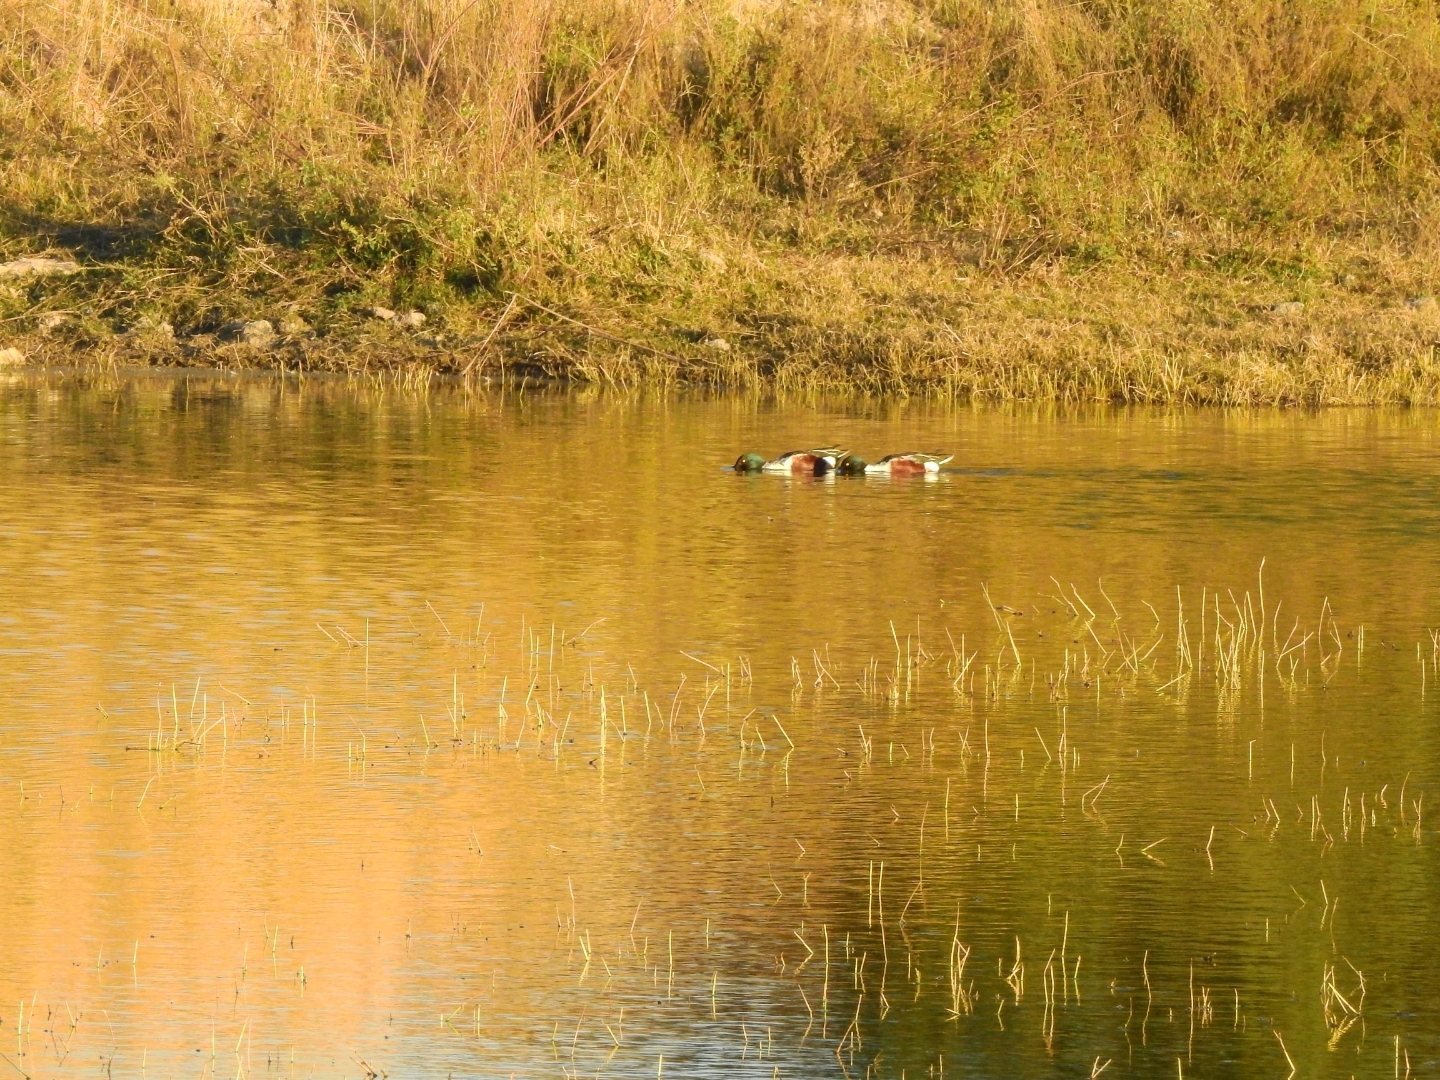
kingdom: Animalia
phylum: Chordata
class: Aves
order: Anseriformes
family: Anatidae
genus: Spatula
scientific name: Spatula clypeata
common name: Northern shoveler
